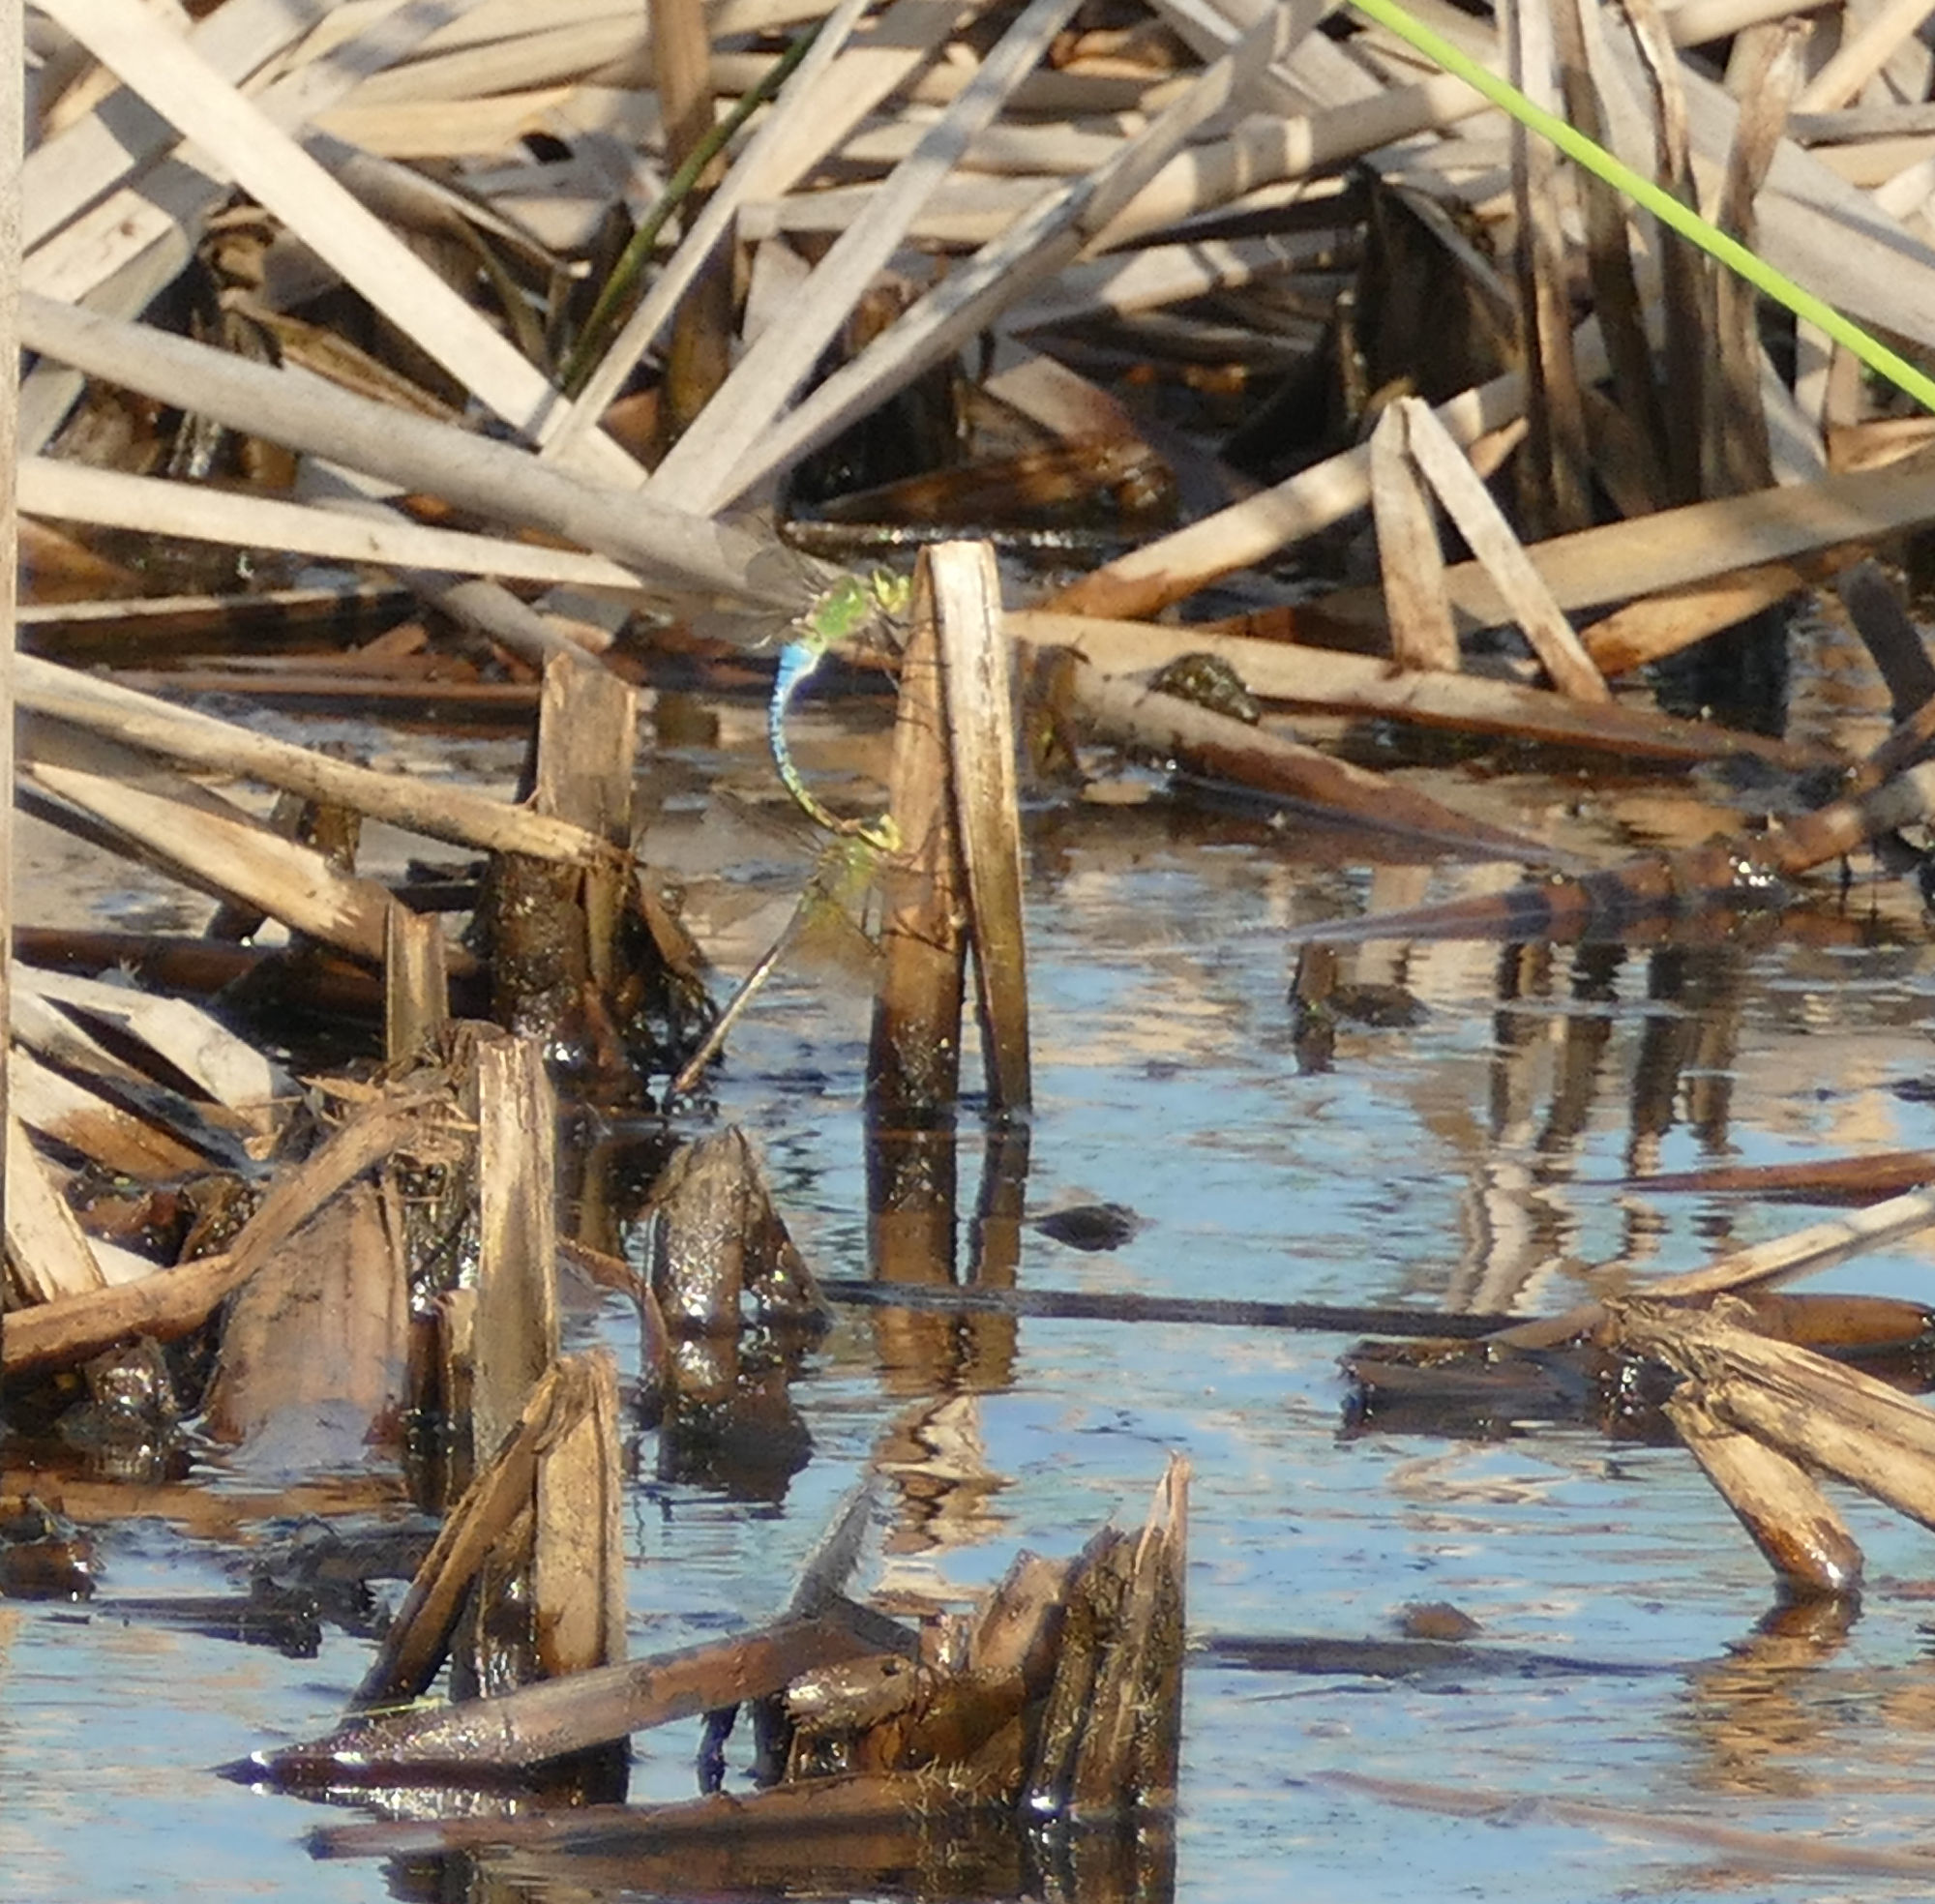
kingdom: Animalia
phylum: Arthropoda
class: Insecta
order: Odonata
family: Aeshnidae
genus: Anax
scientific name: Anax junius
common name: Common green darner
